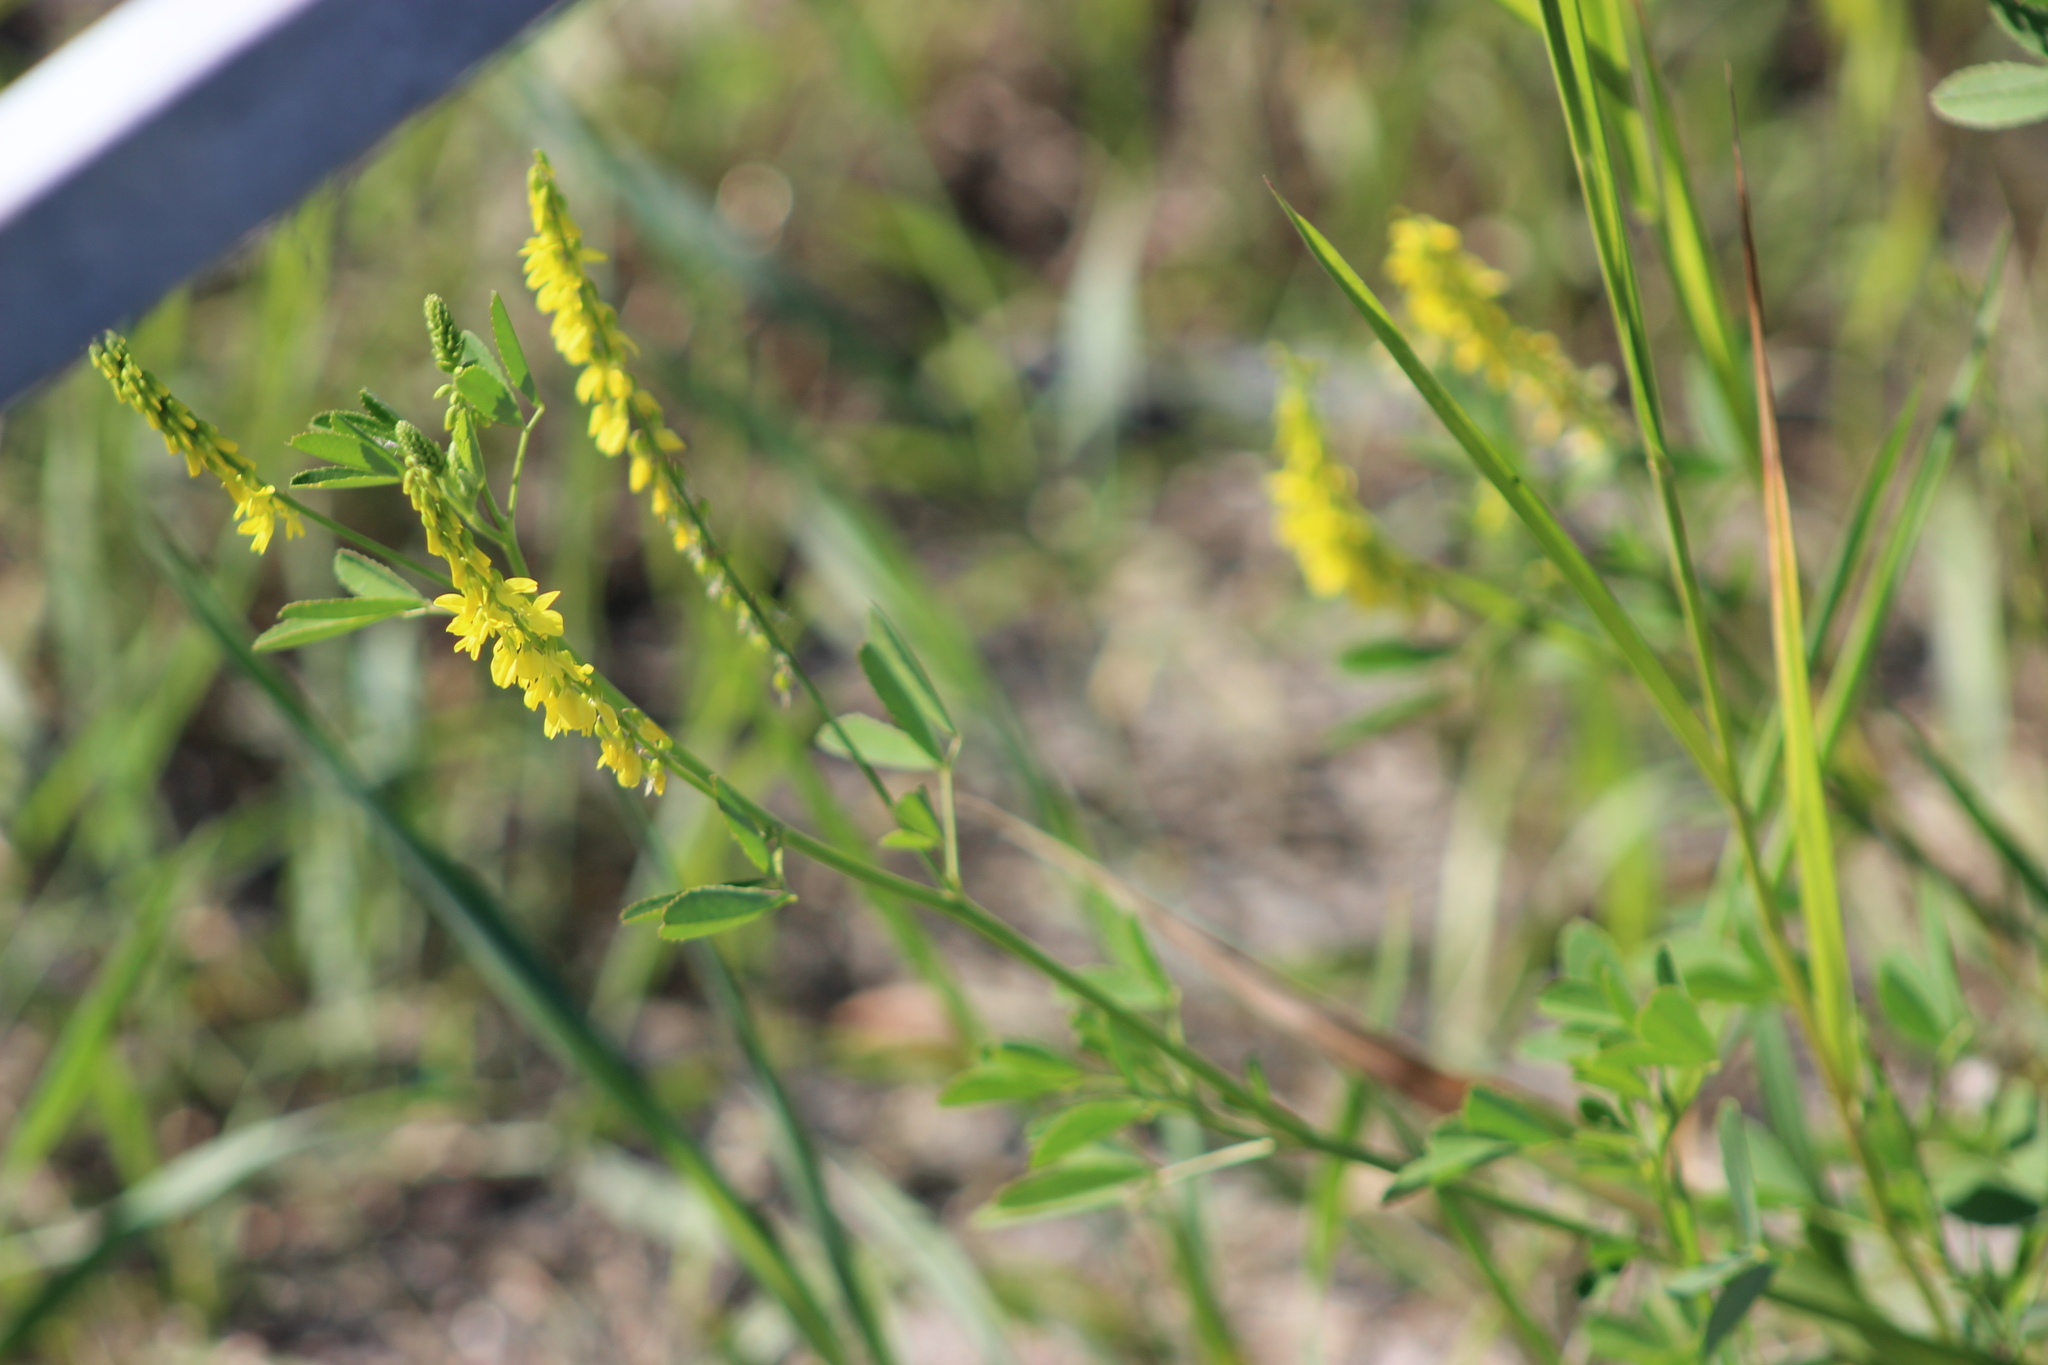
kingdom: Plantae
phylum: Tracheophyta
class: Magnoliopsida
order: Fabales
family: Fabaceae
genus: Melilotus
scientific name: Melilotus officinalis
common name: Sweetclover
